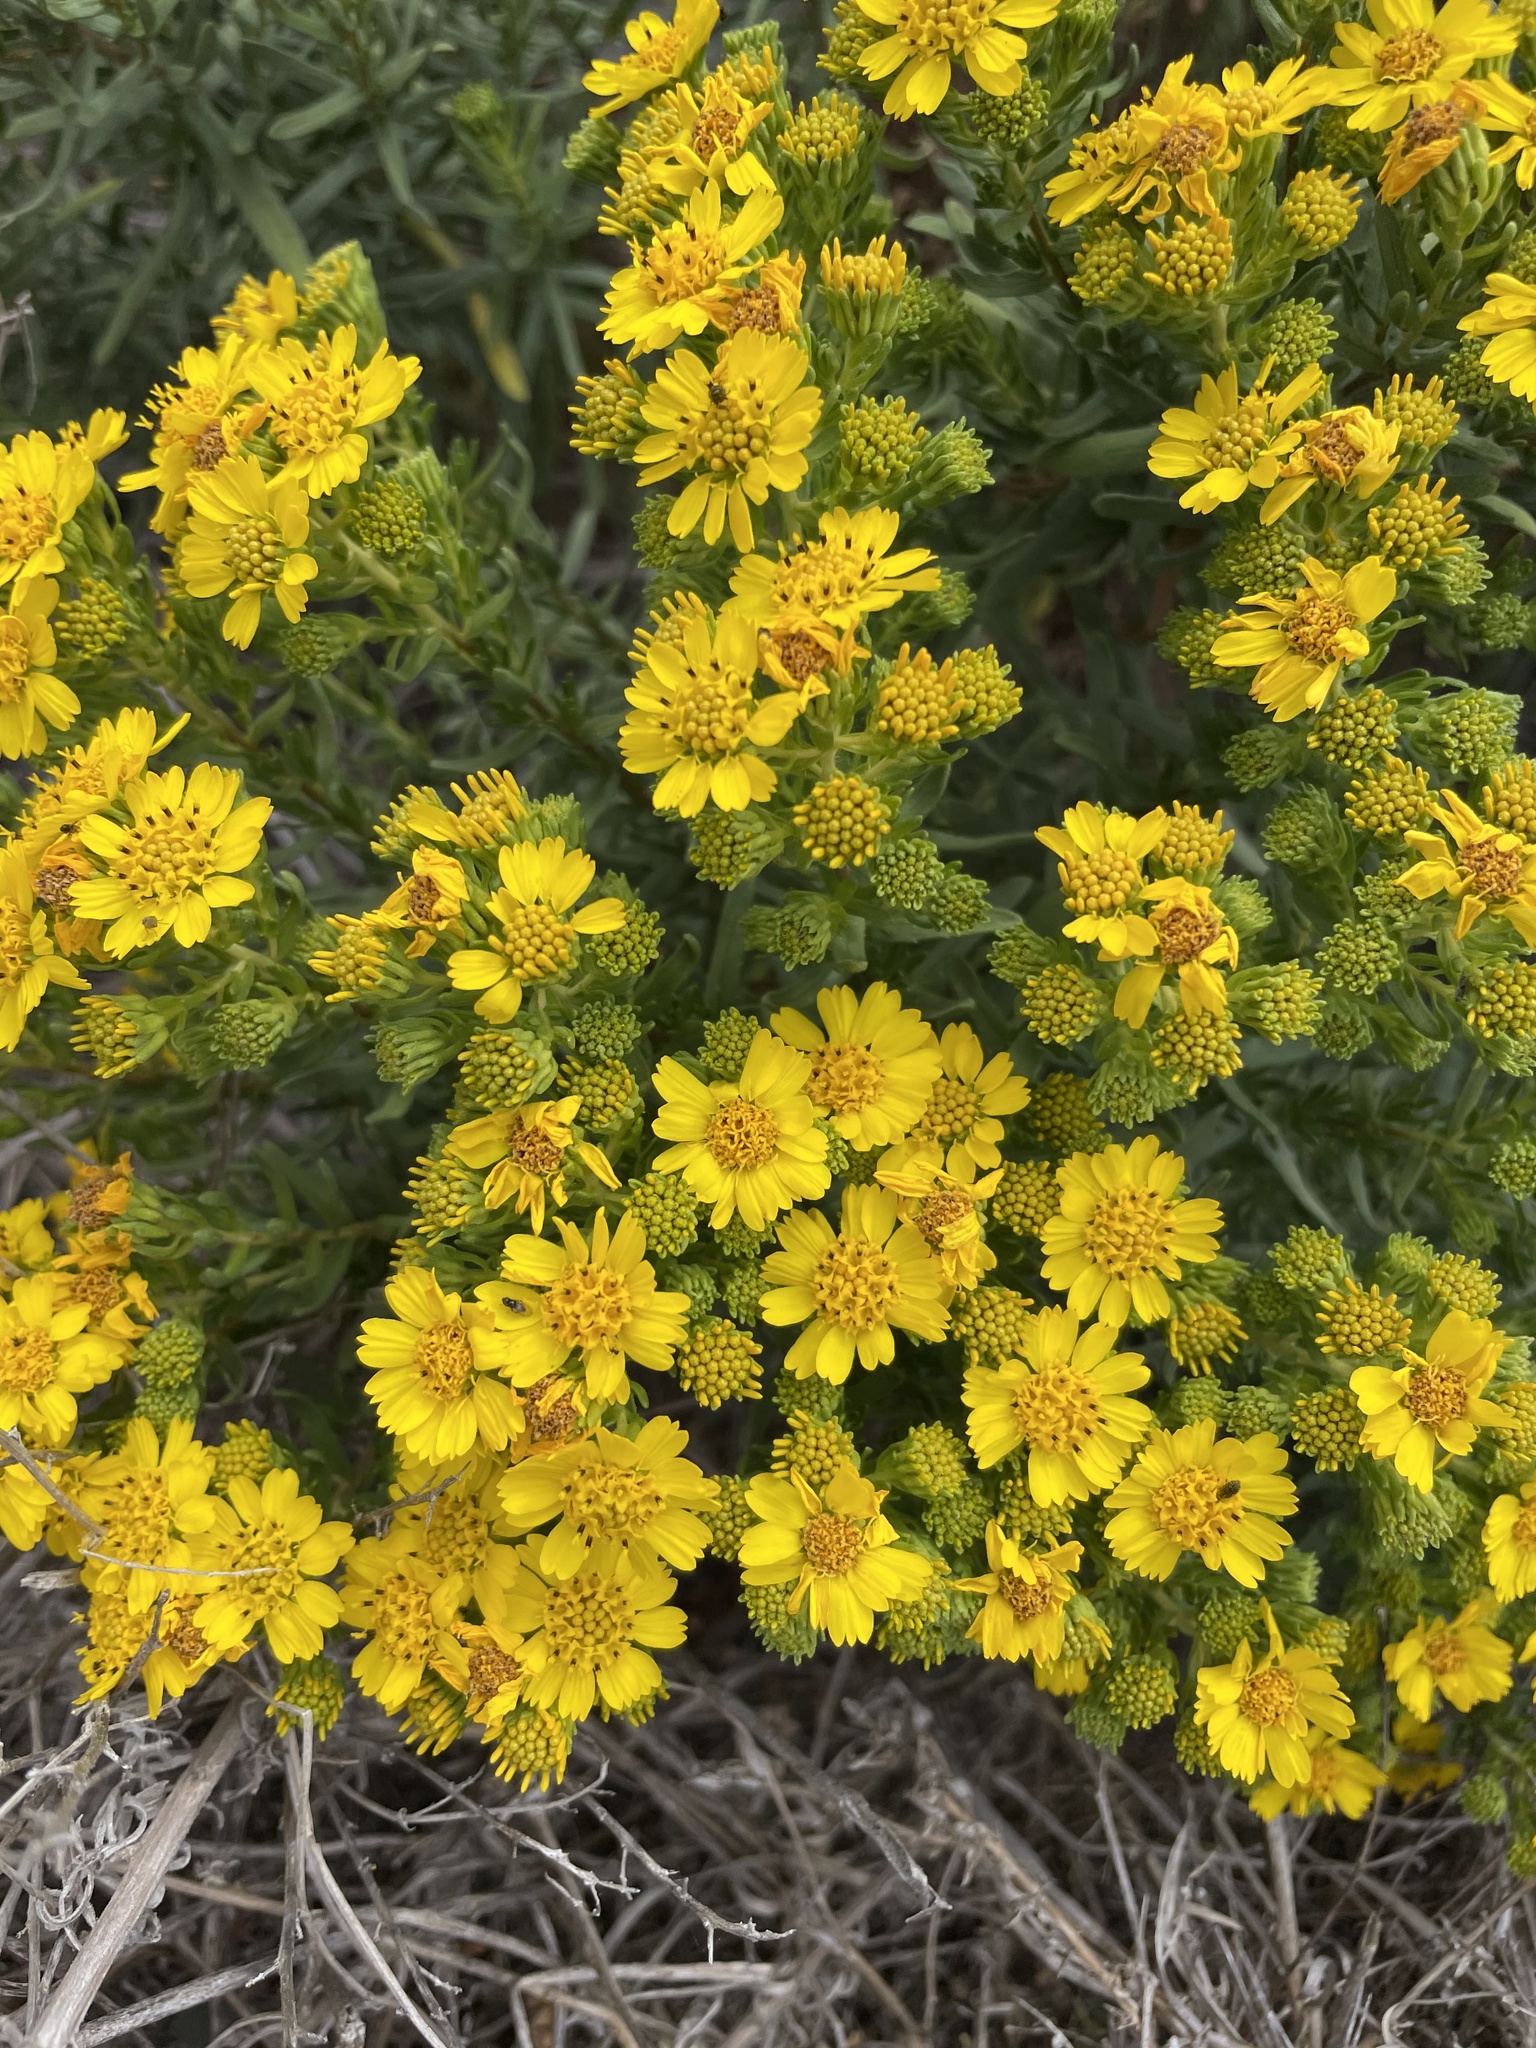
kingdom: Plantae
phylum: Tracheophyta
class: Magnoliopsida
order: Asterales
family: Asteraceae
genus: Deinandra
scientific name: Deinandra clementina
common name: Island tarplant
